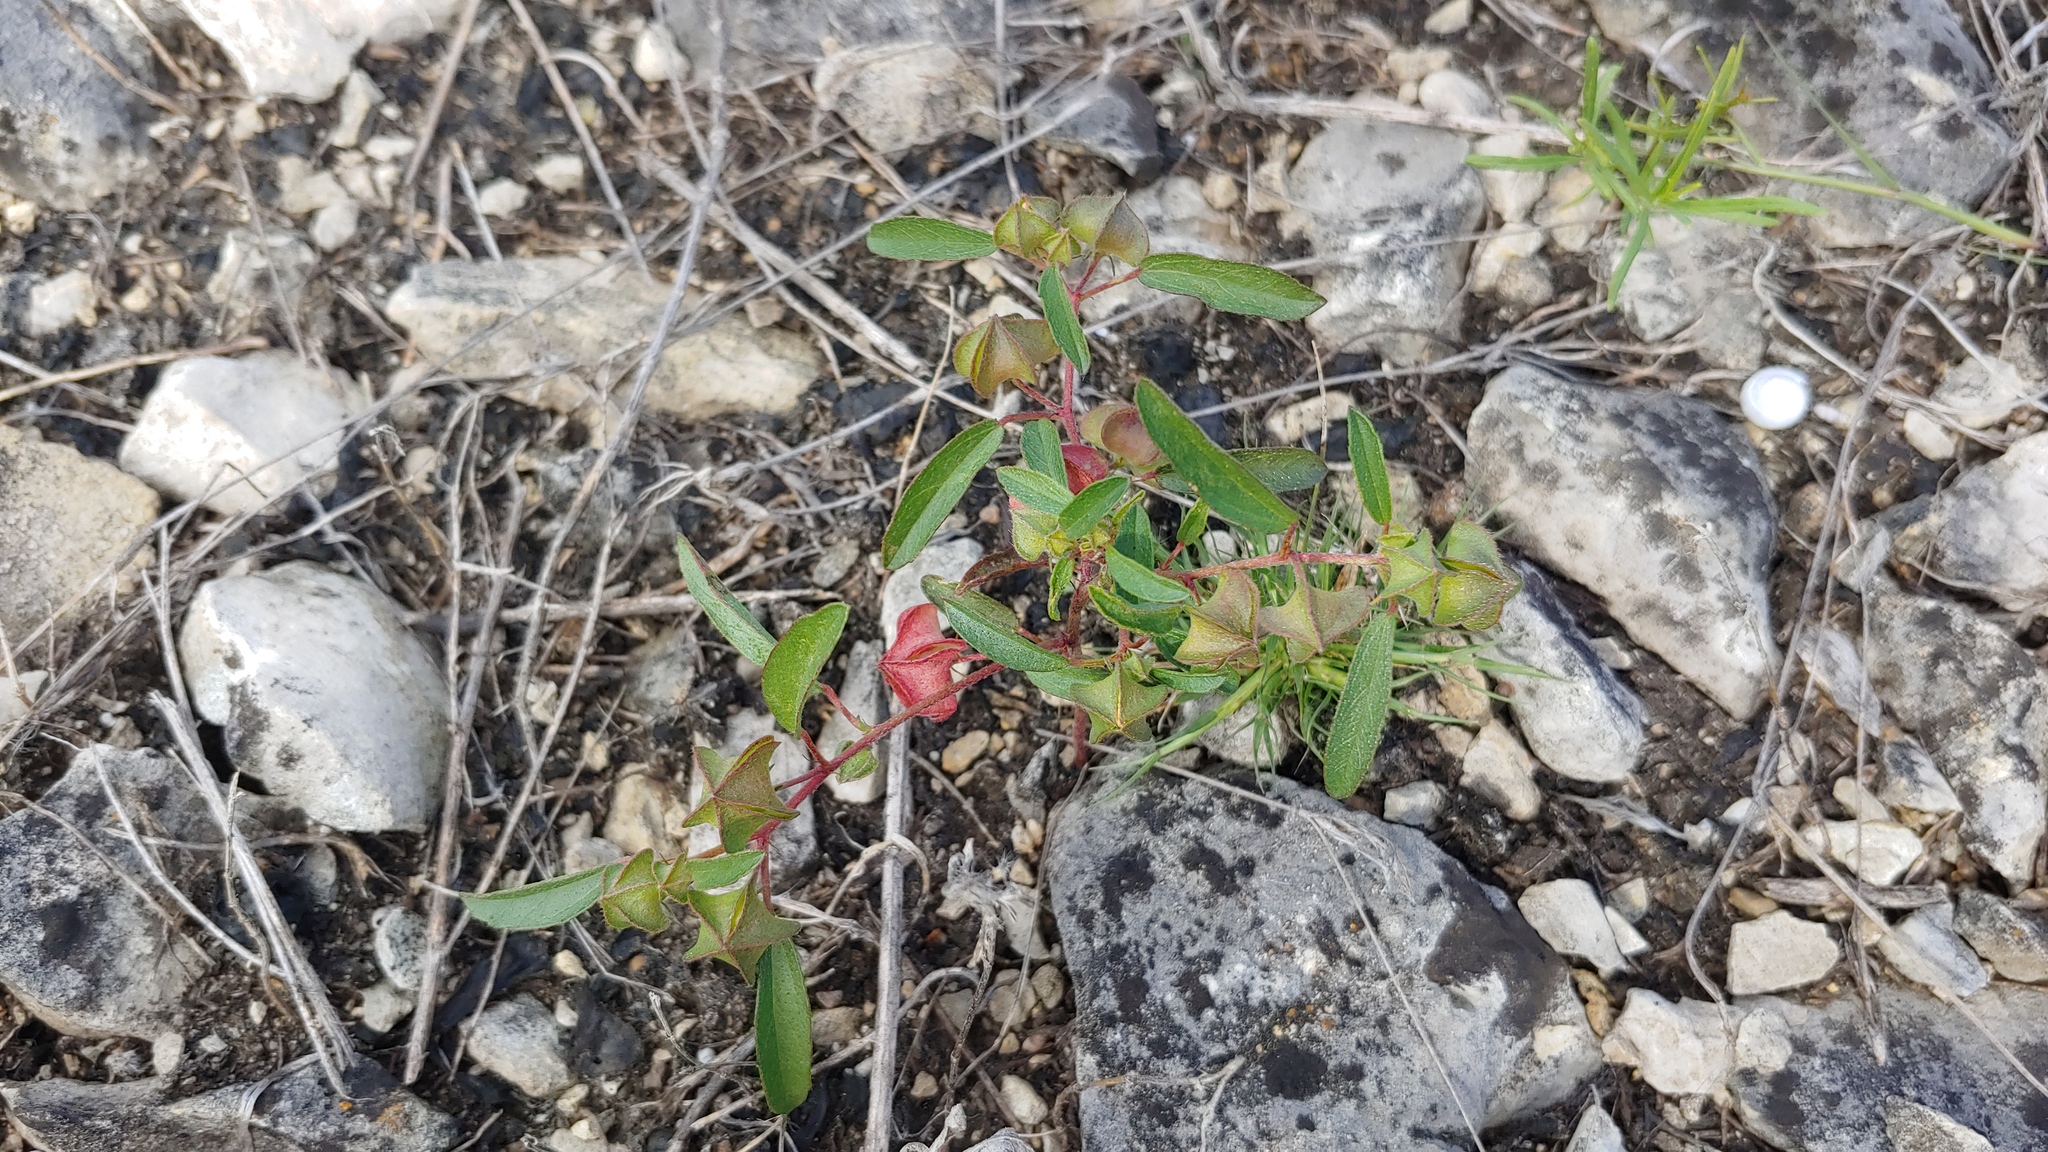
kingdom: Plantae
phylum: Tracheophyta
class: Magnoliopsida
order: Malvales
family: Malvaceae
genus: Malvastrum
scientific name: Malvastrum hispidum
